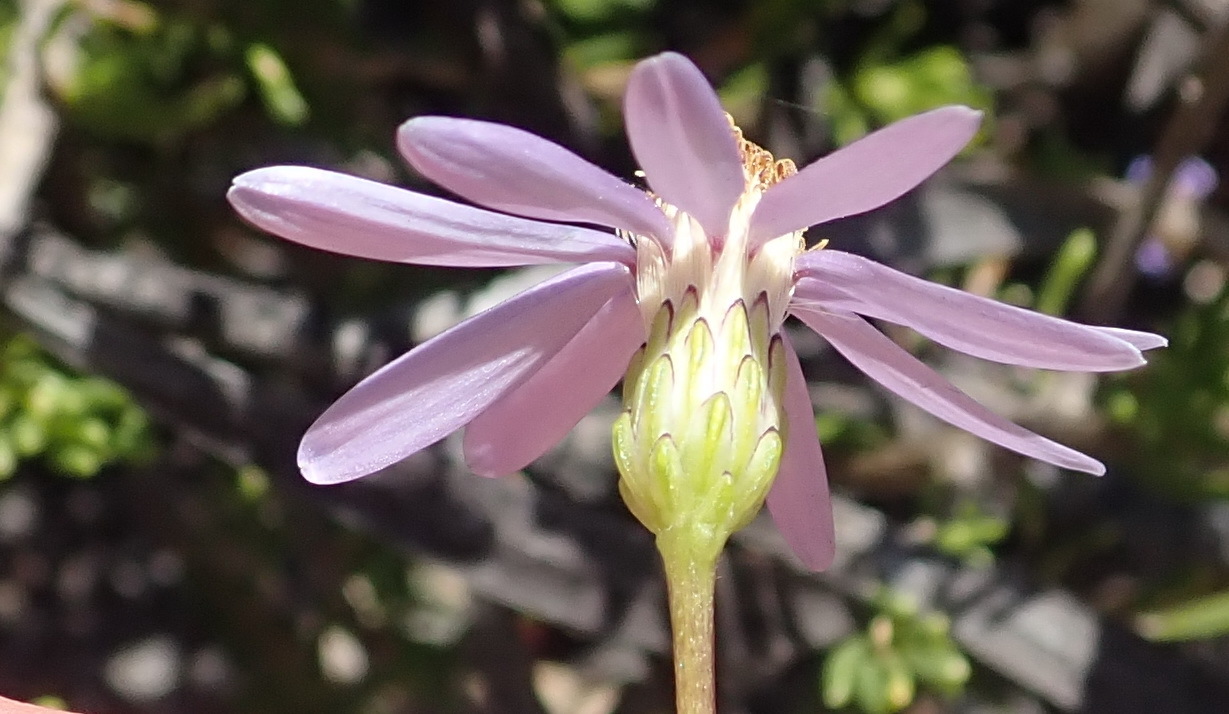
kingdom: Plantae
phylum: Tracheophyta
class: Magnoliopsida
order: Asterales
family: Asteraceae
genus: Felicia
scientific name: Felicia filifolia
